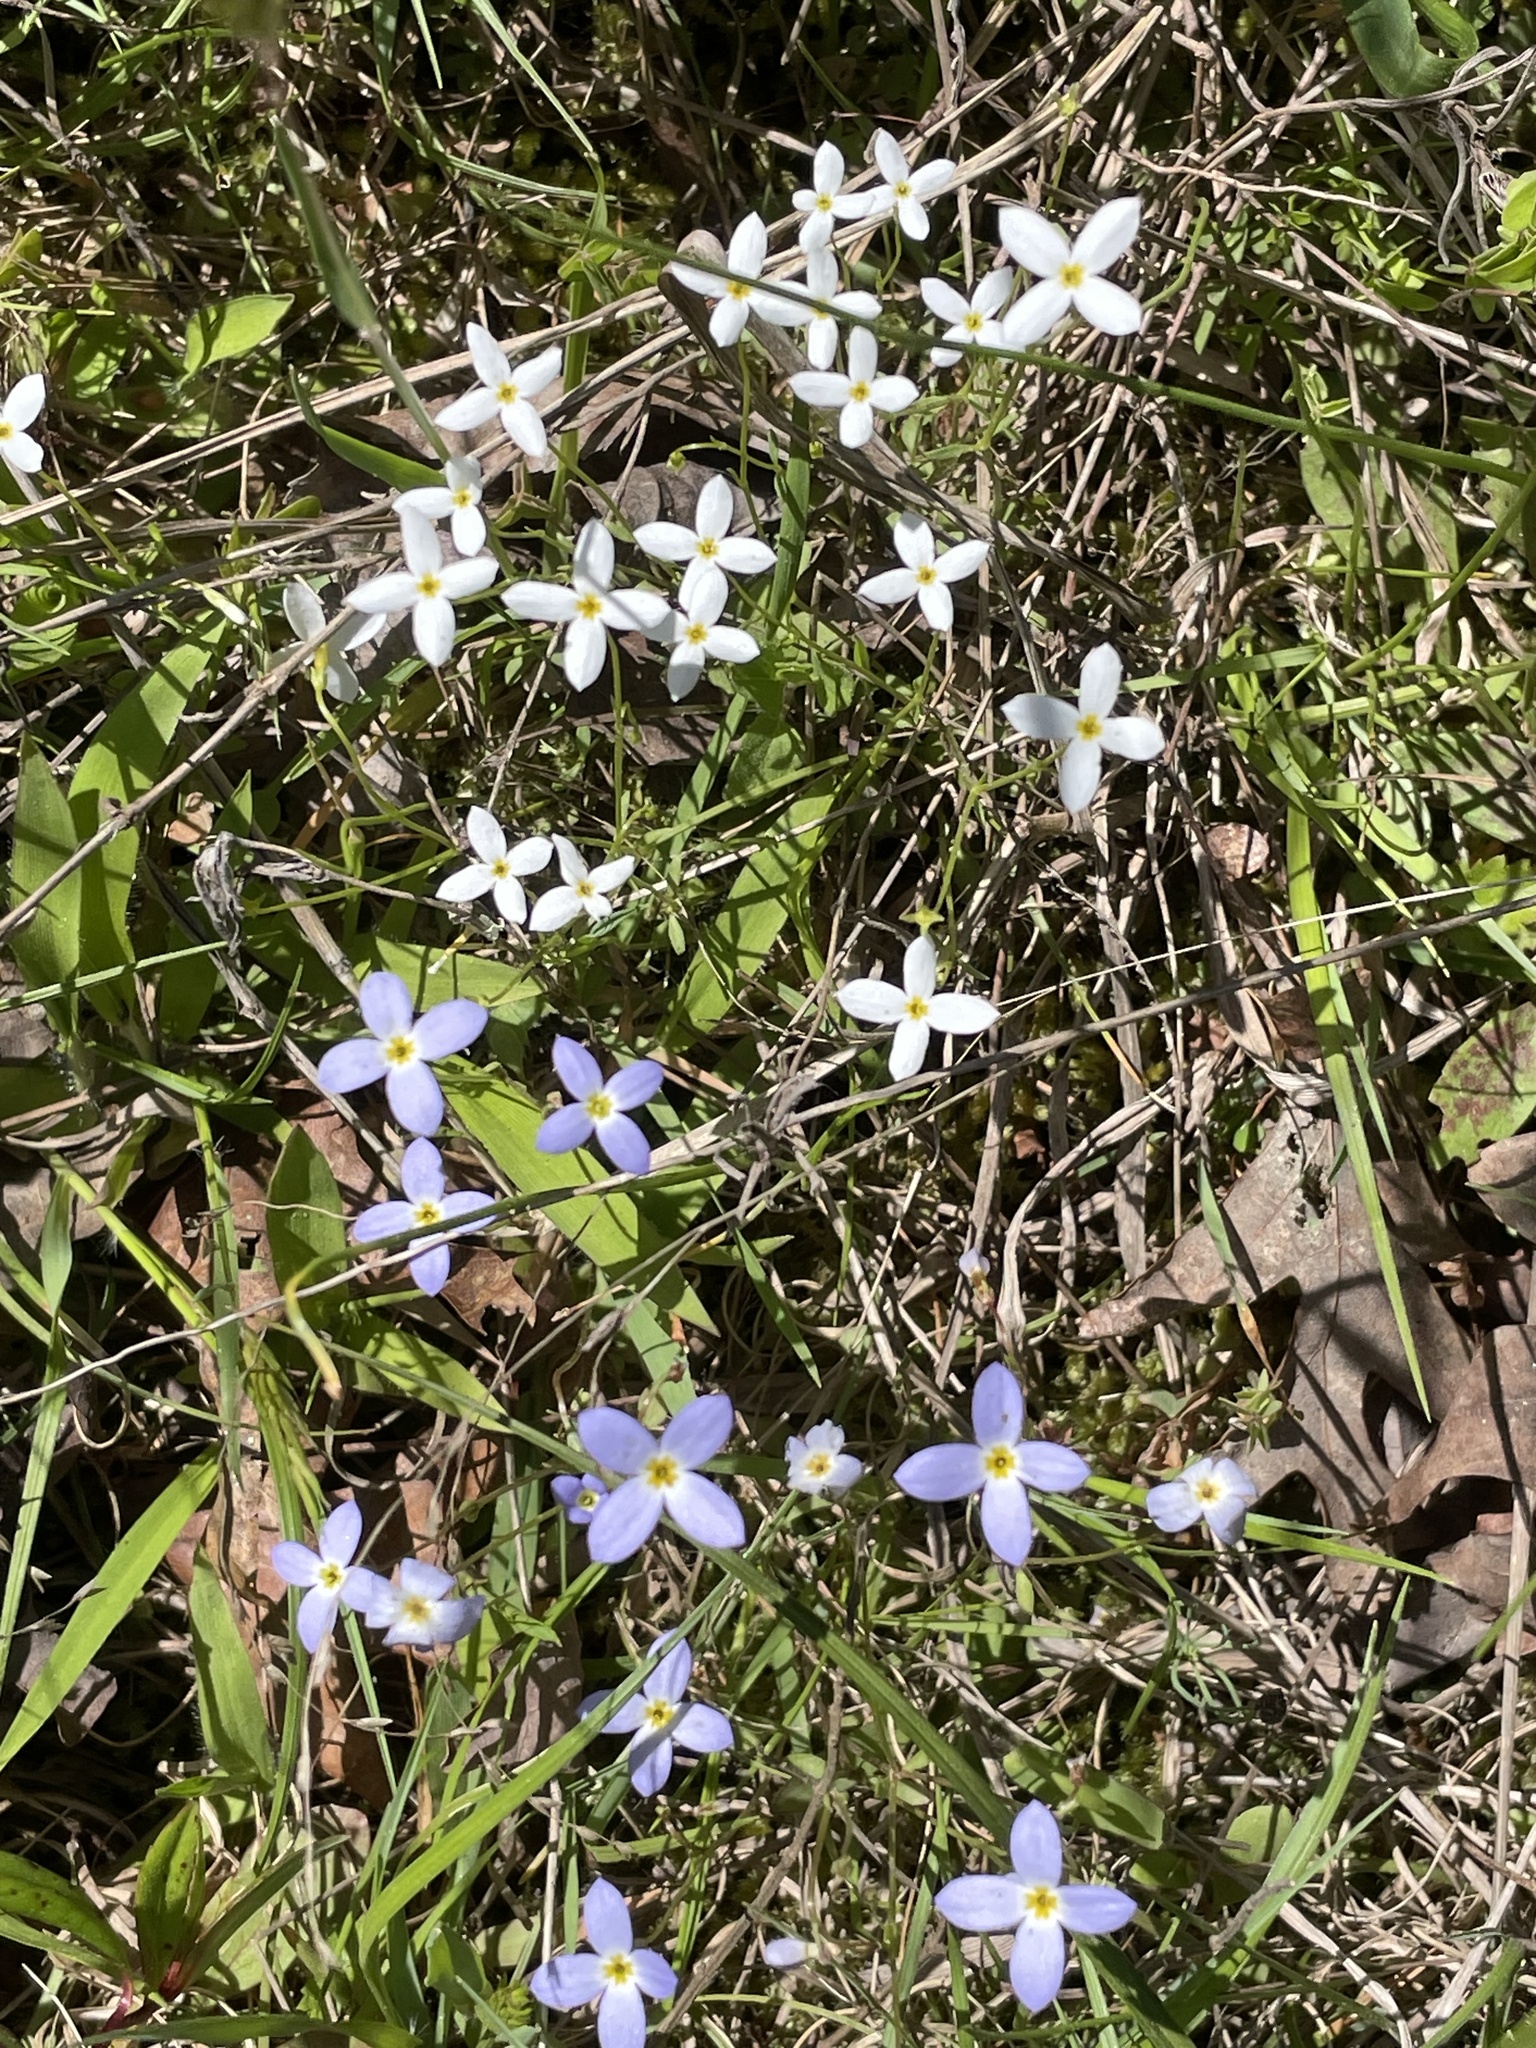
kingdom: Plantae
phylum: Tracheophyta
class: Magnoliopsida
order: Gentianales
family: Rubiaceae
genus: Houstonia
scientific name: Houstonia caerulea
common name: Bluets
